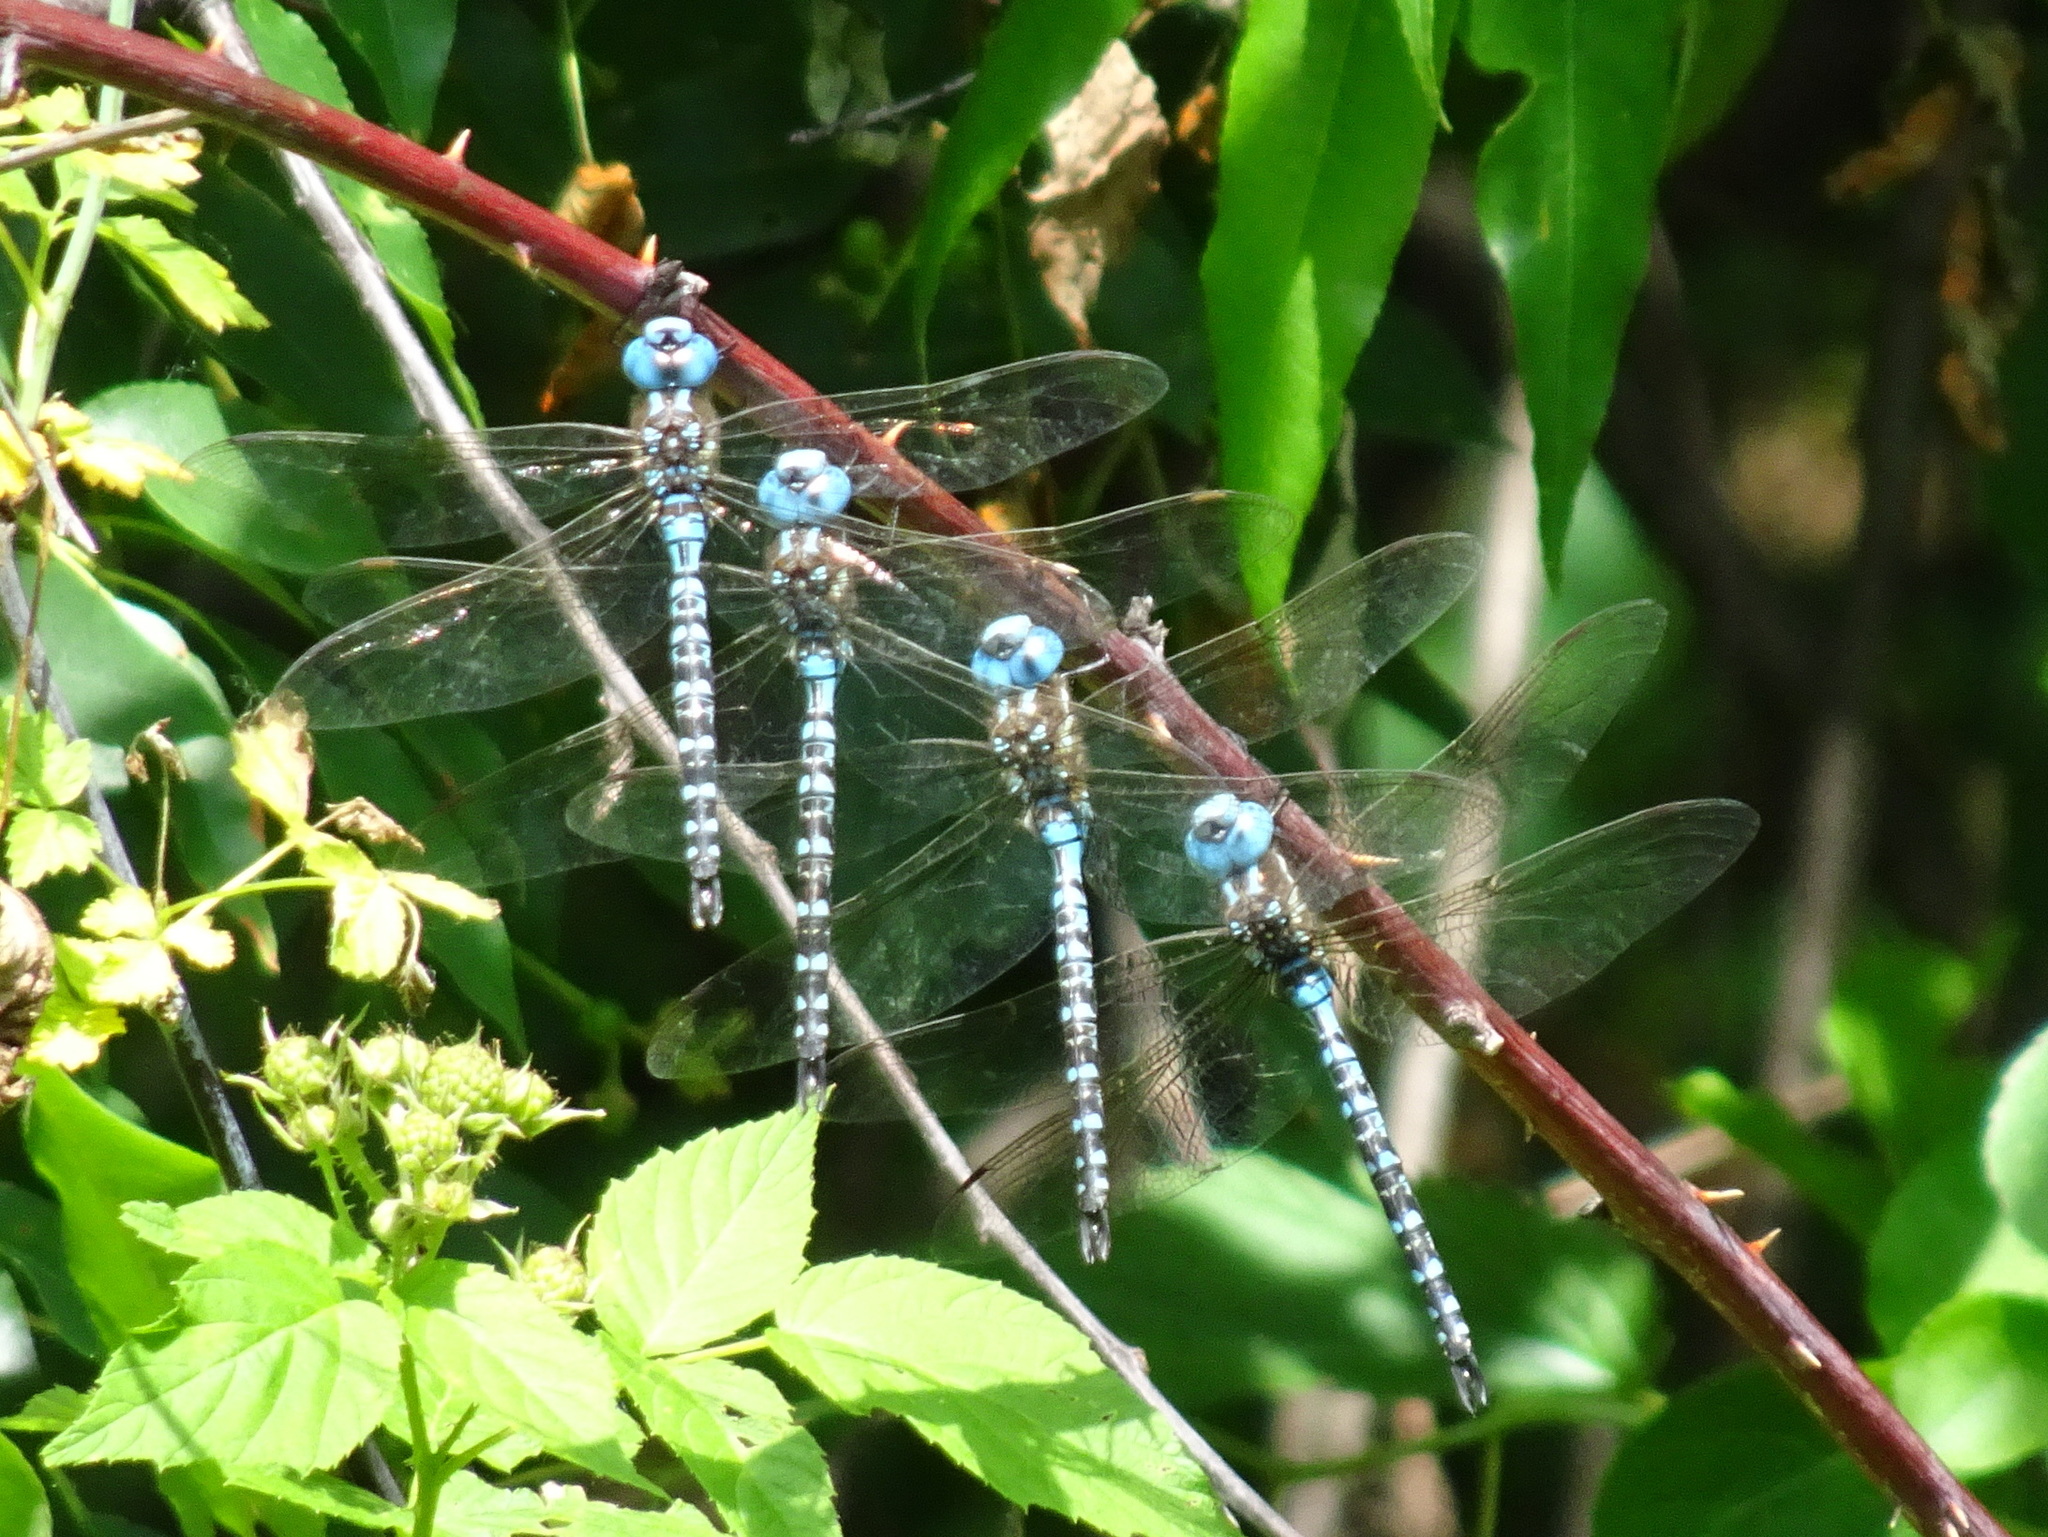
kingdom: Animalia
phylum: Arthropoda
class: Insecta
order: Odonata
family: Aeshnidae
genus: Rhionaeschna
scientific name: Rhionaeschna mutata
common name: Spatterdock darner
